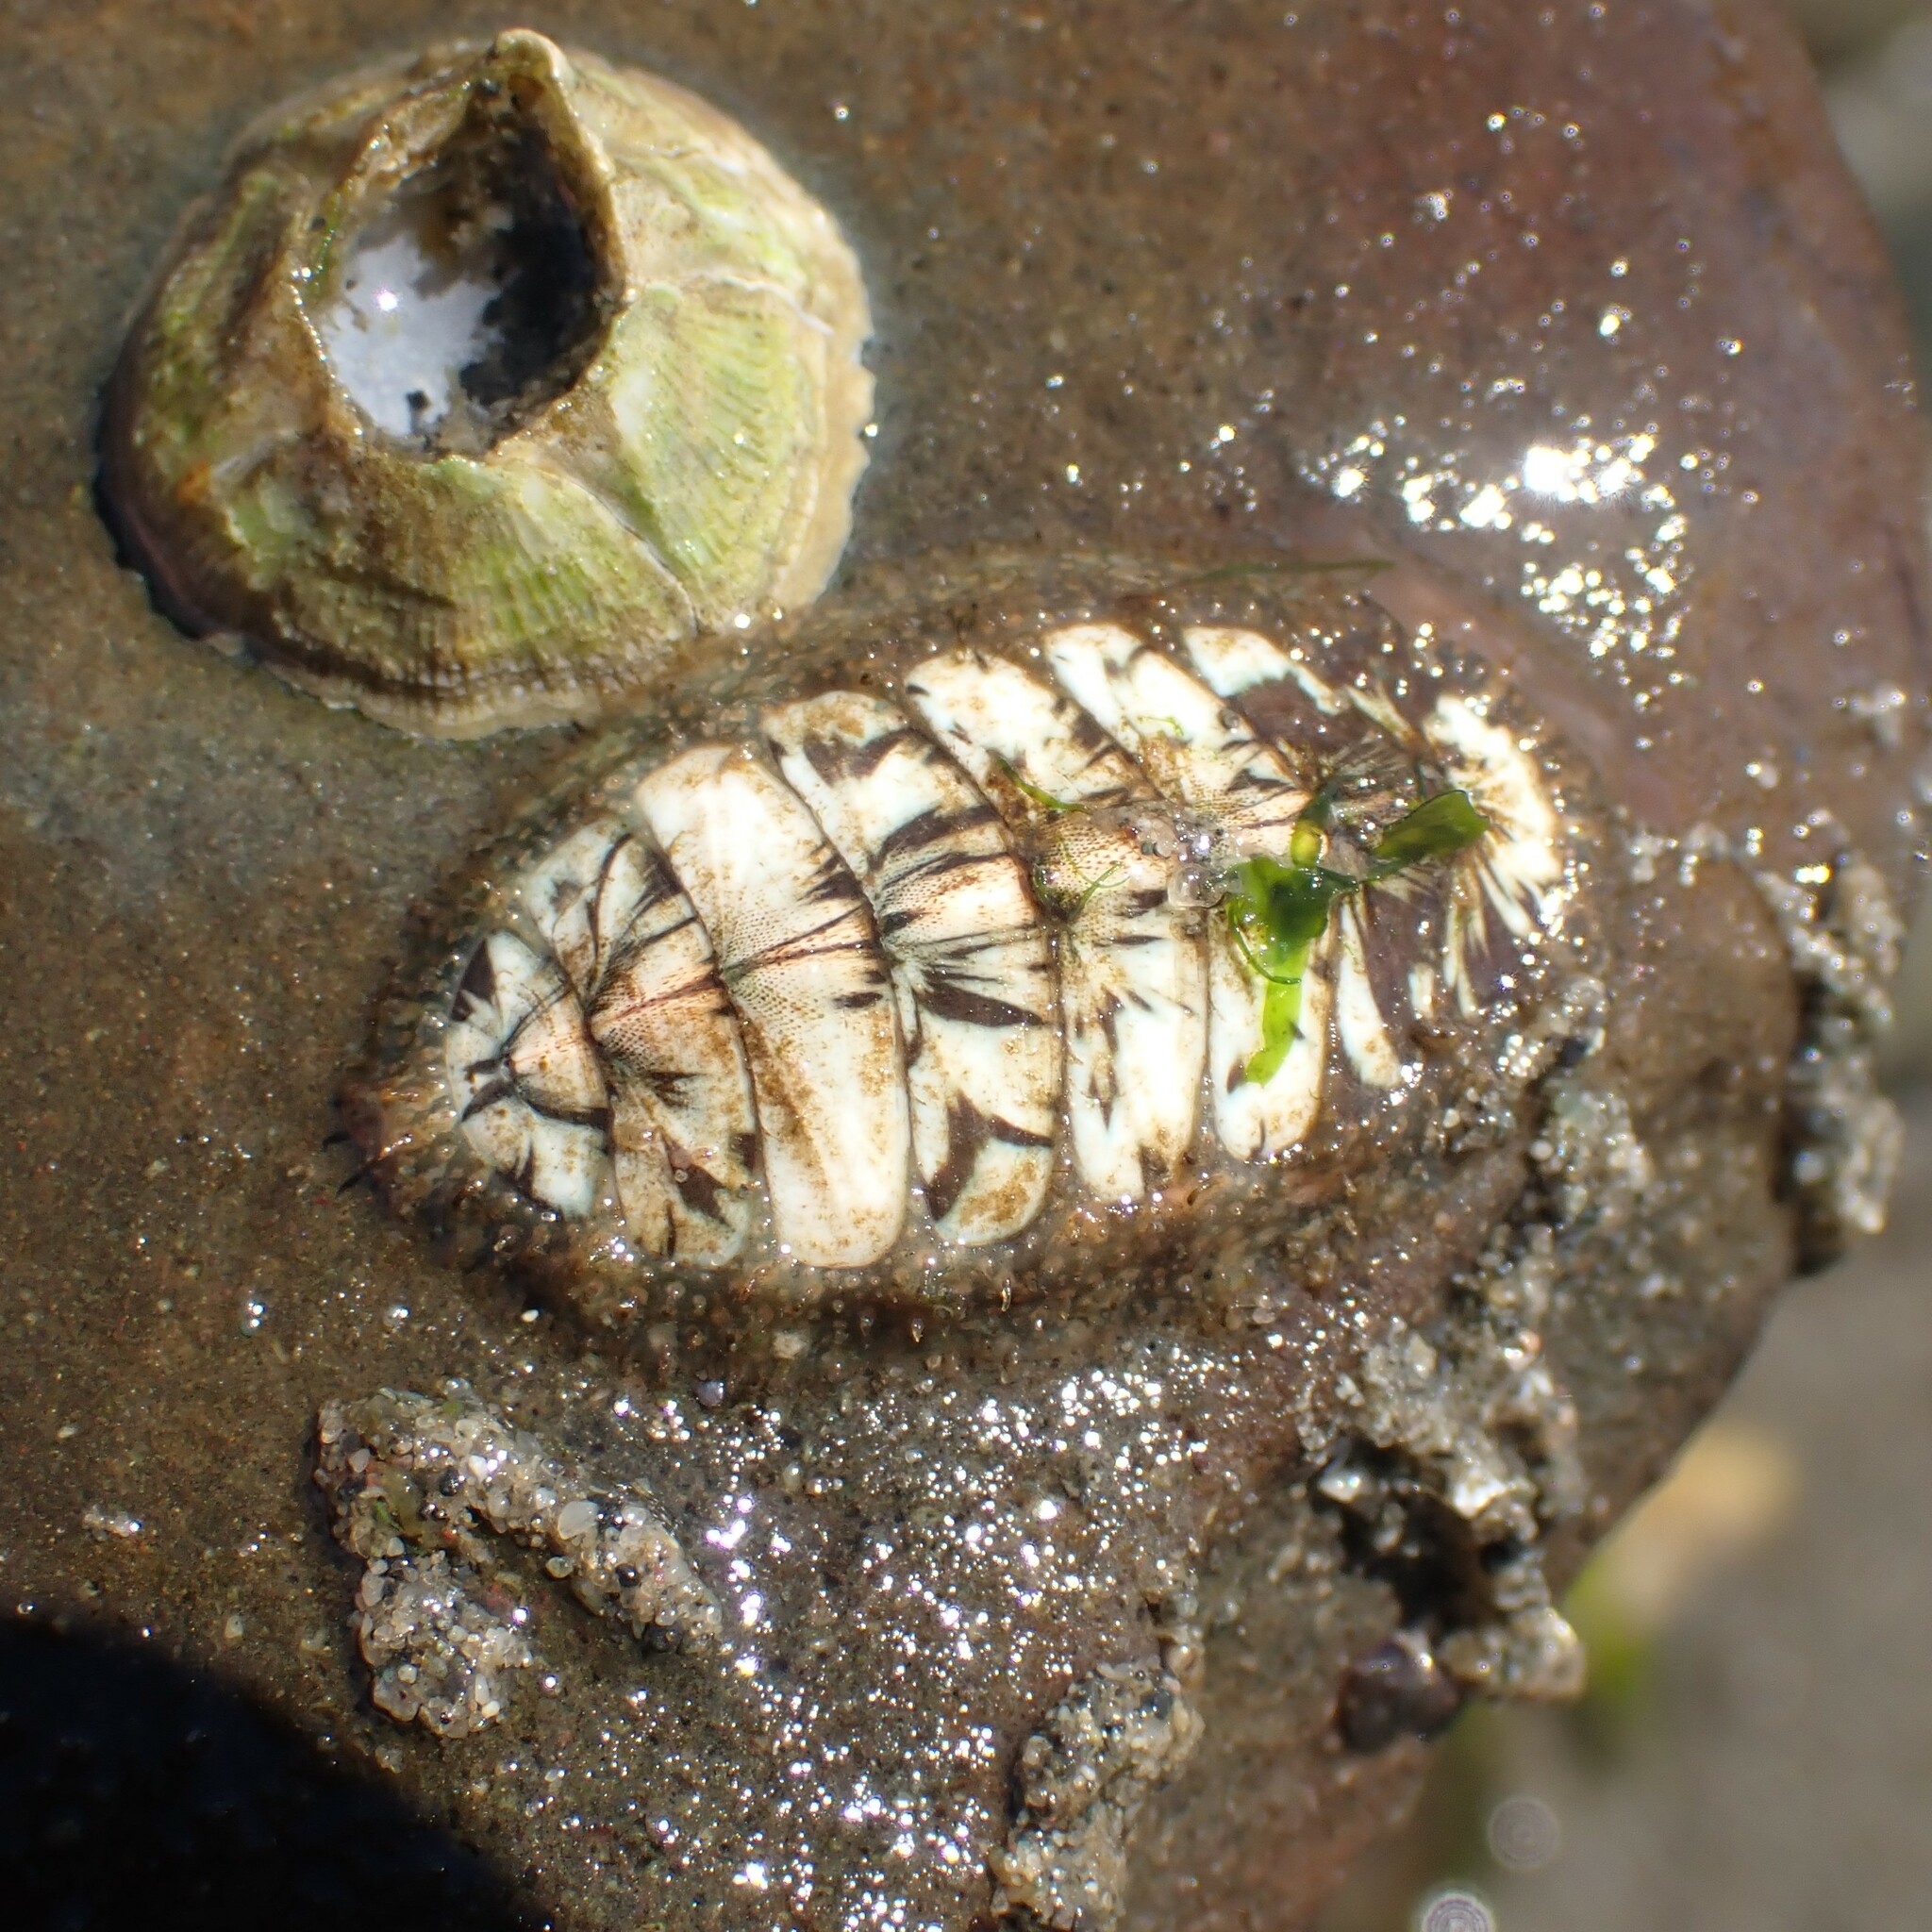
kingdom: Animalia
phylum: Mollusca
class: Polyplacophora
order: Chitonida
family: Mopaliidae
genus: Mopalia
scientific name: Mopalia lignosa
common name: Woody chiton
